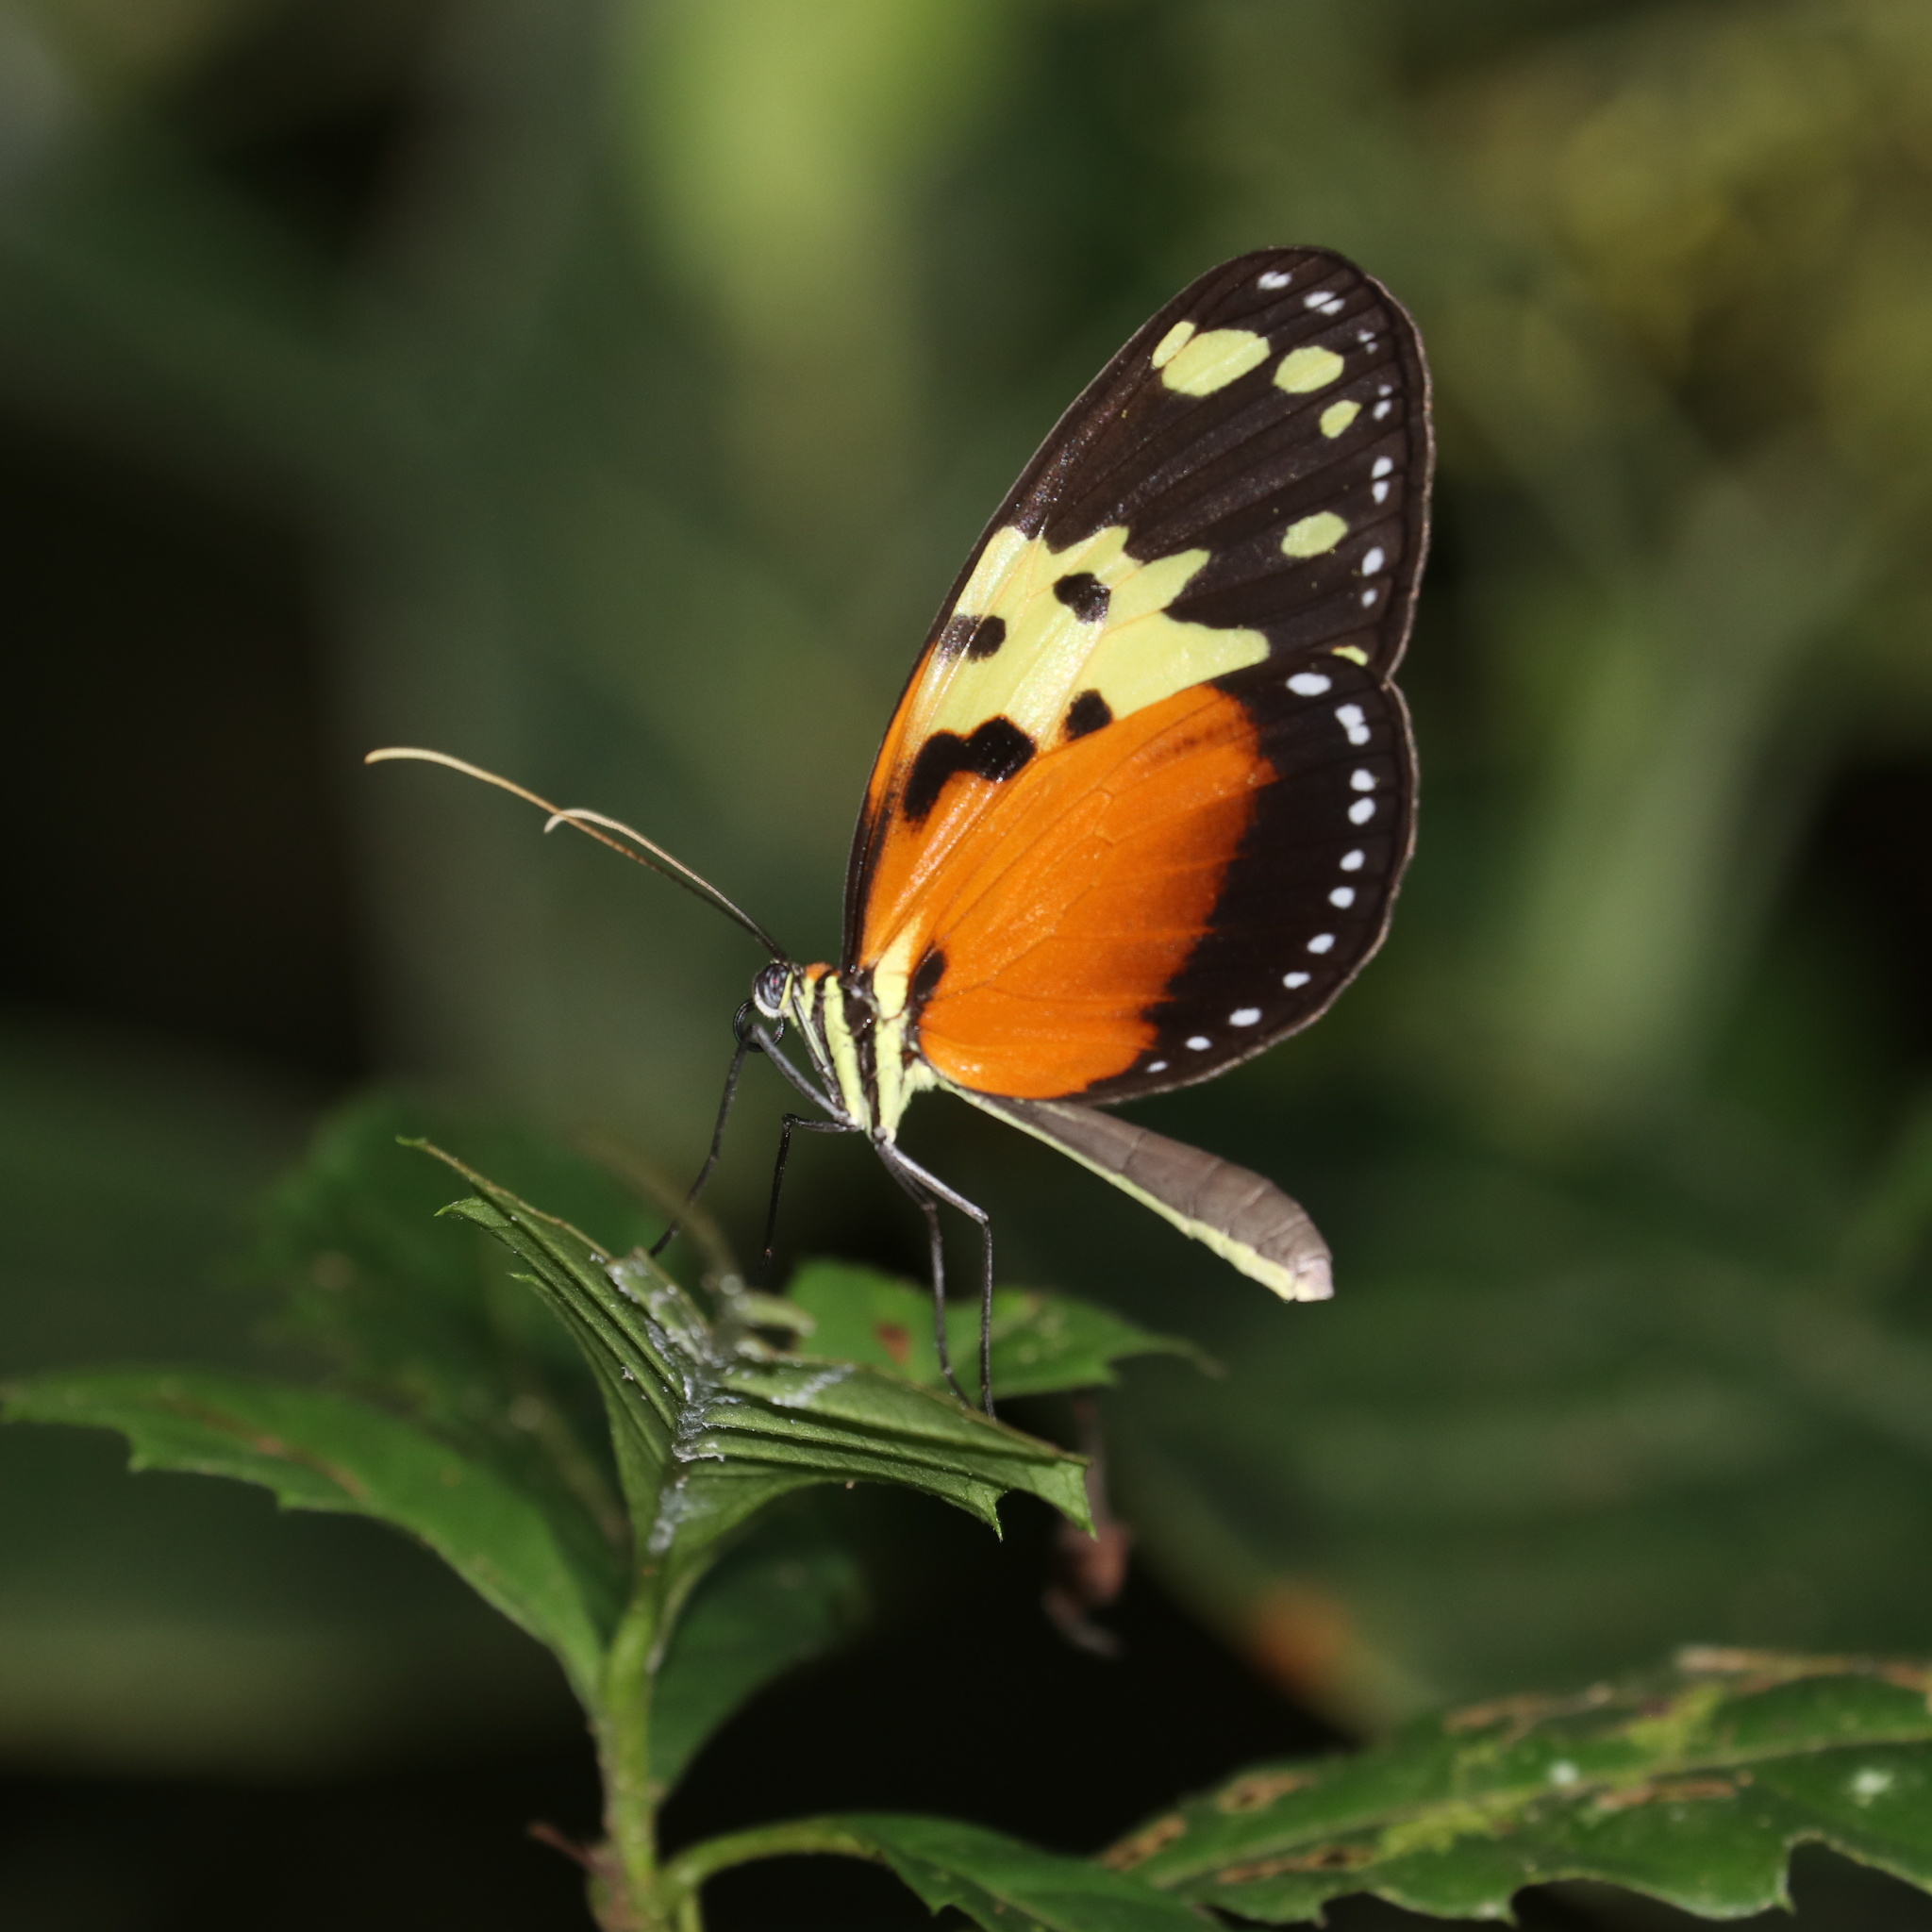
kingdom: Animalia
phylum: Arthropoda
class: Insecta
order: Lepidoptera
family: Nymphalidae
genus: Melinaea
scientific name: Melinaea idae
